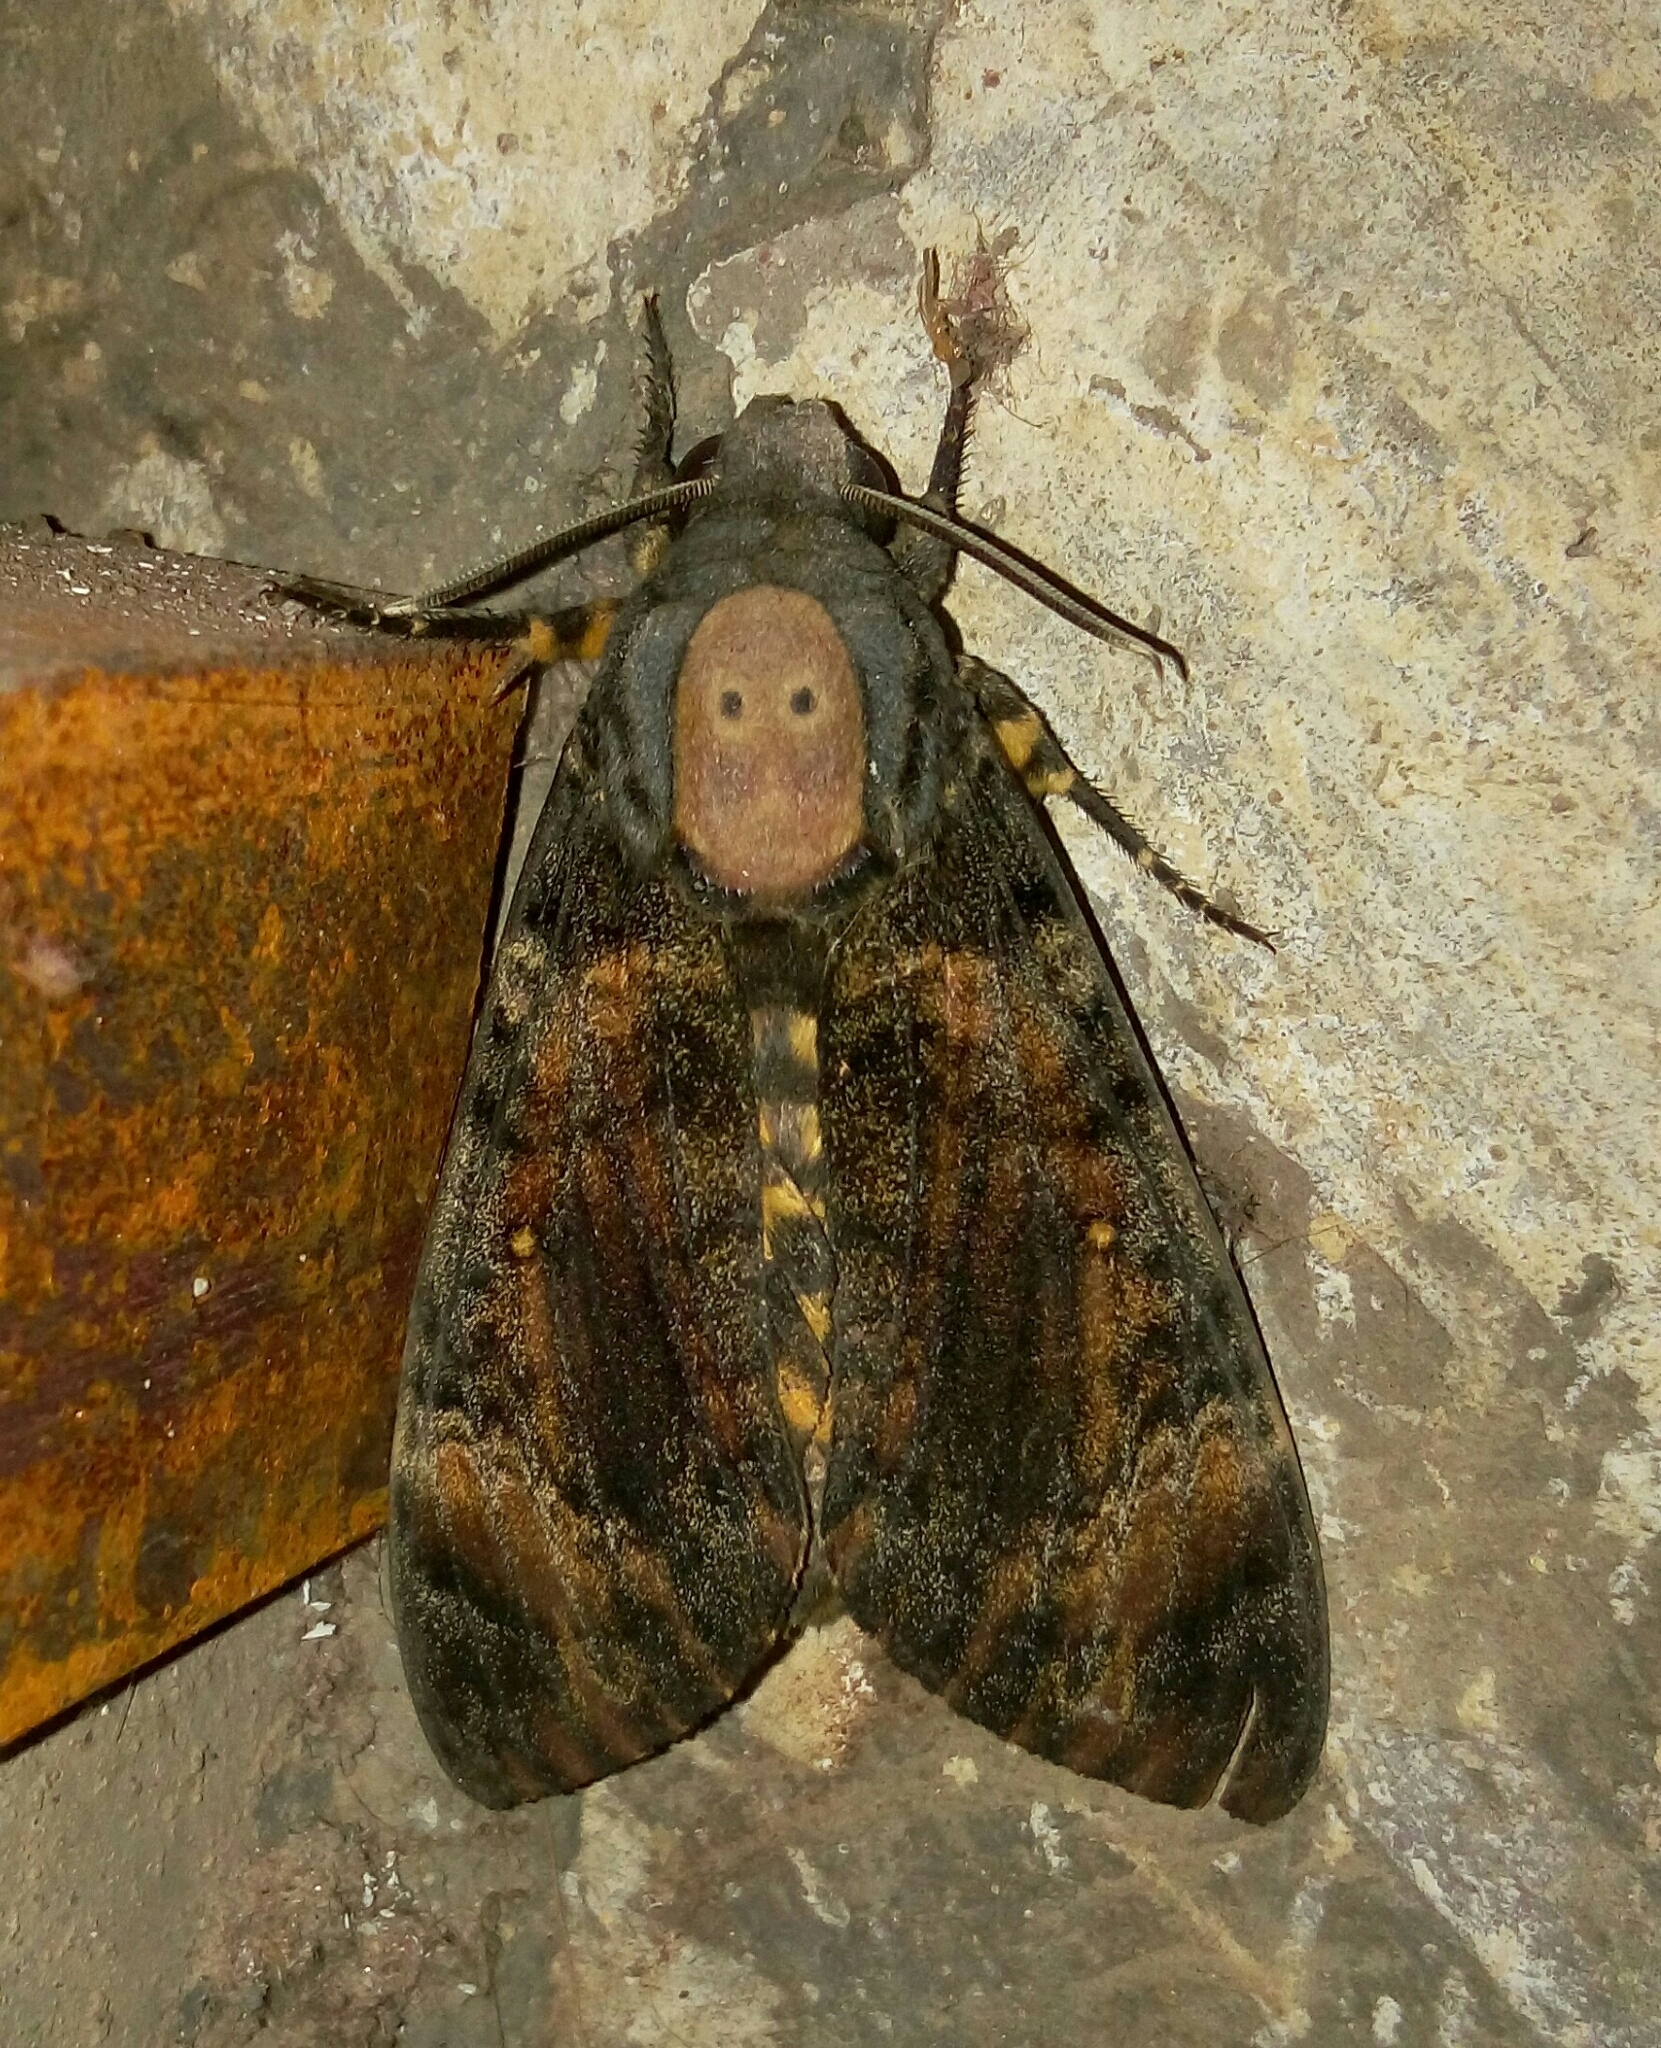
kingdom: Animalia
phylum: Arthropoda
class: Insecta
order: Lepidoptera
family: Sphingidae
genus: Acherontia
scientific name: Acherontia styx
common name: Death's-head hawk moth
